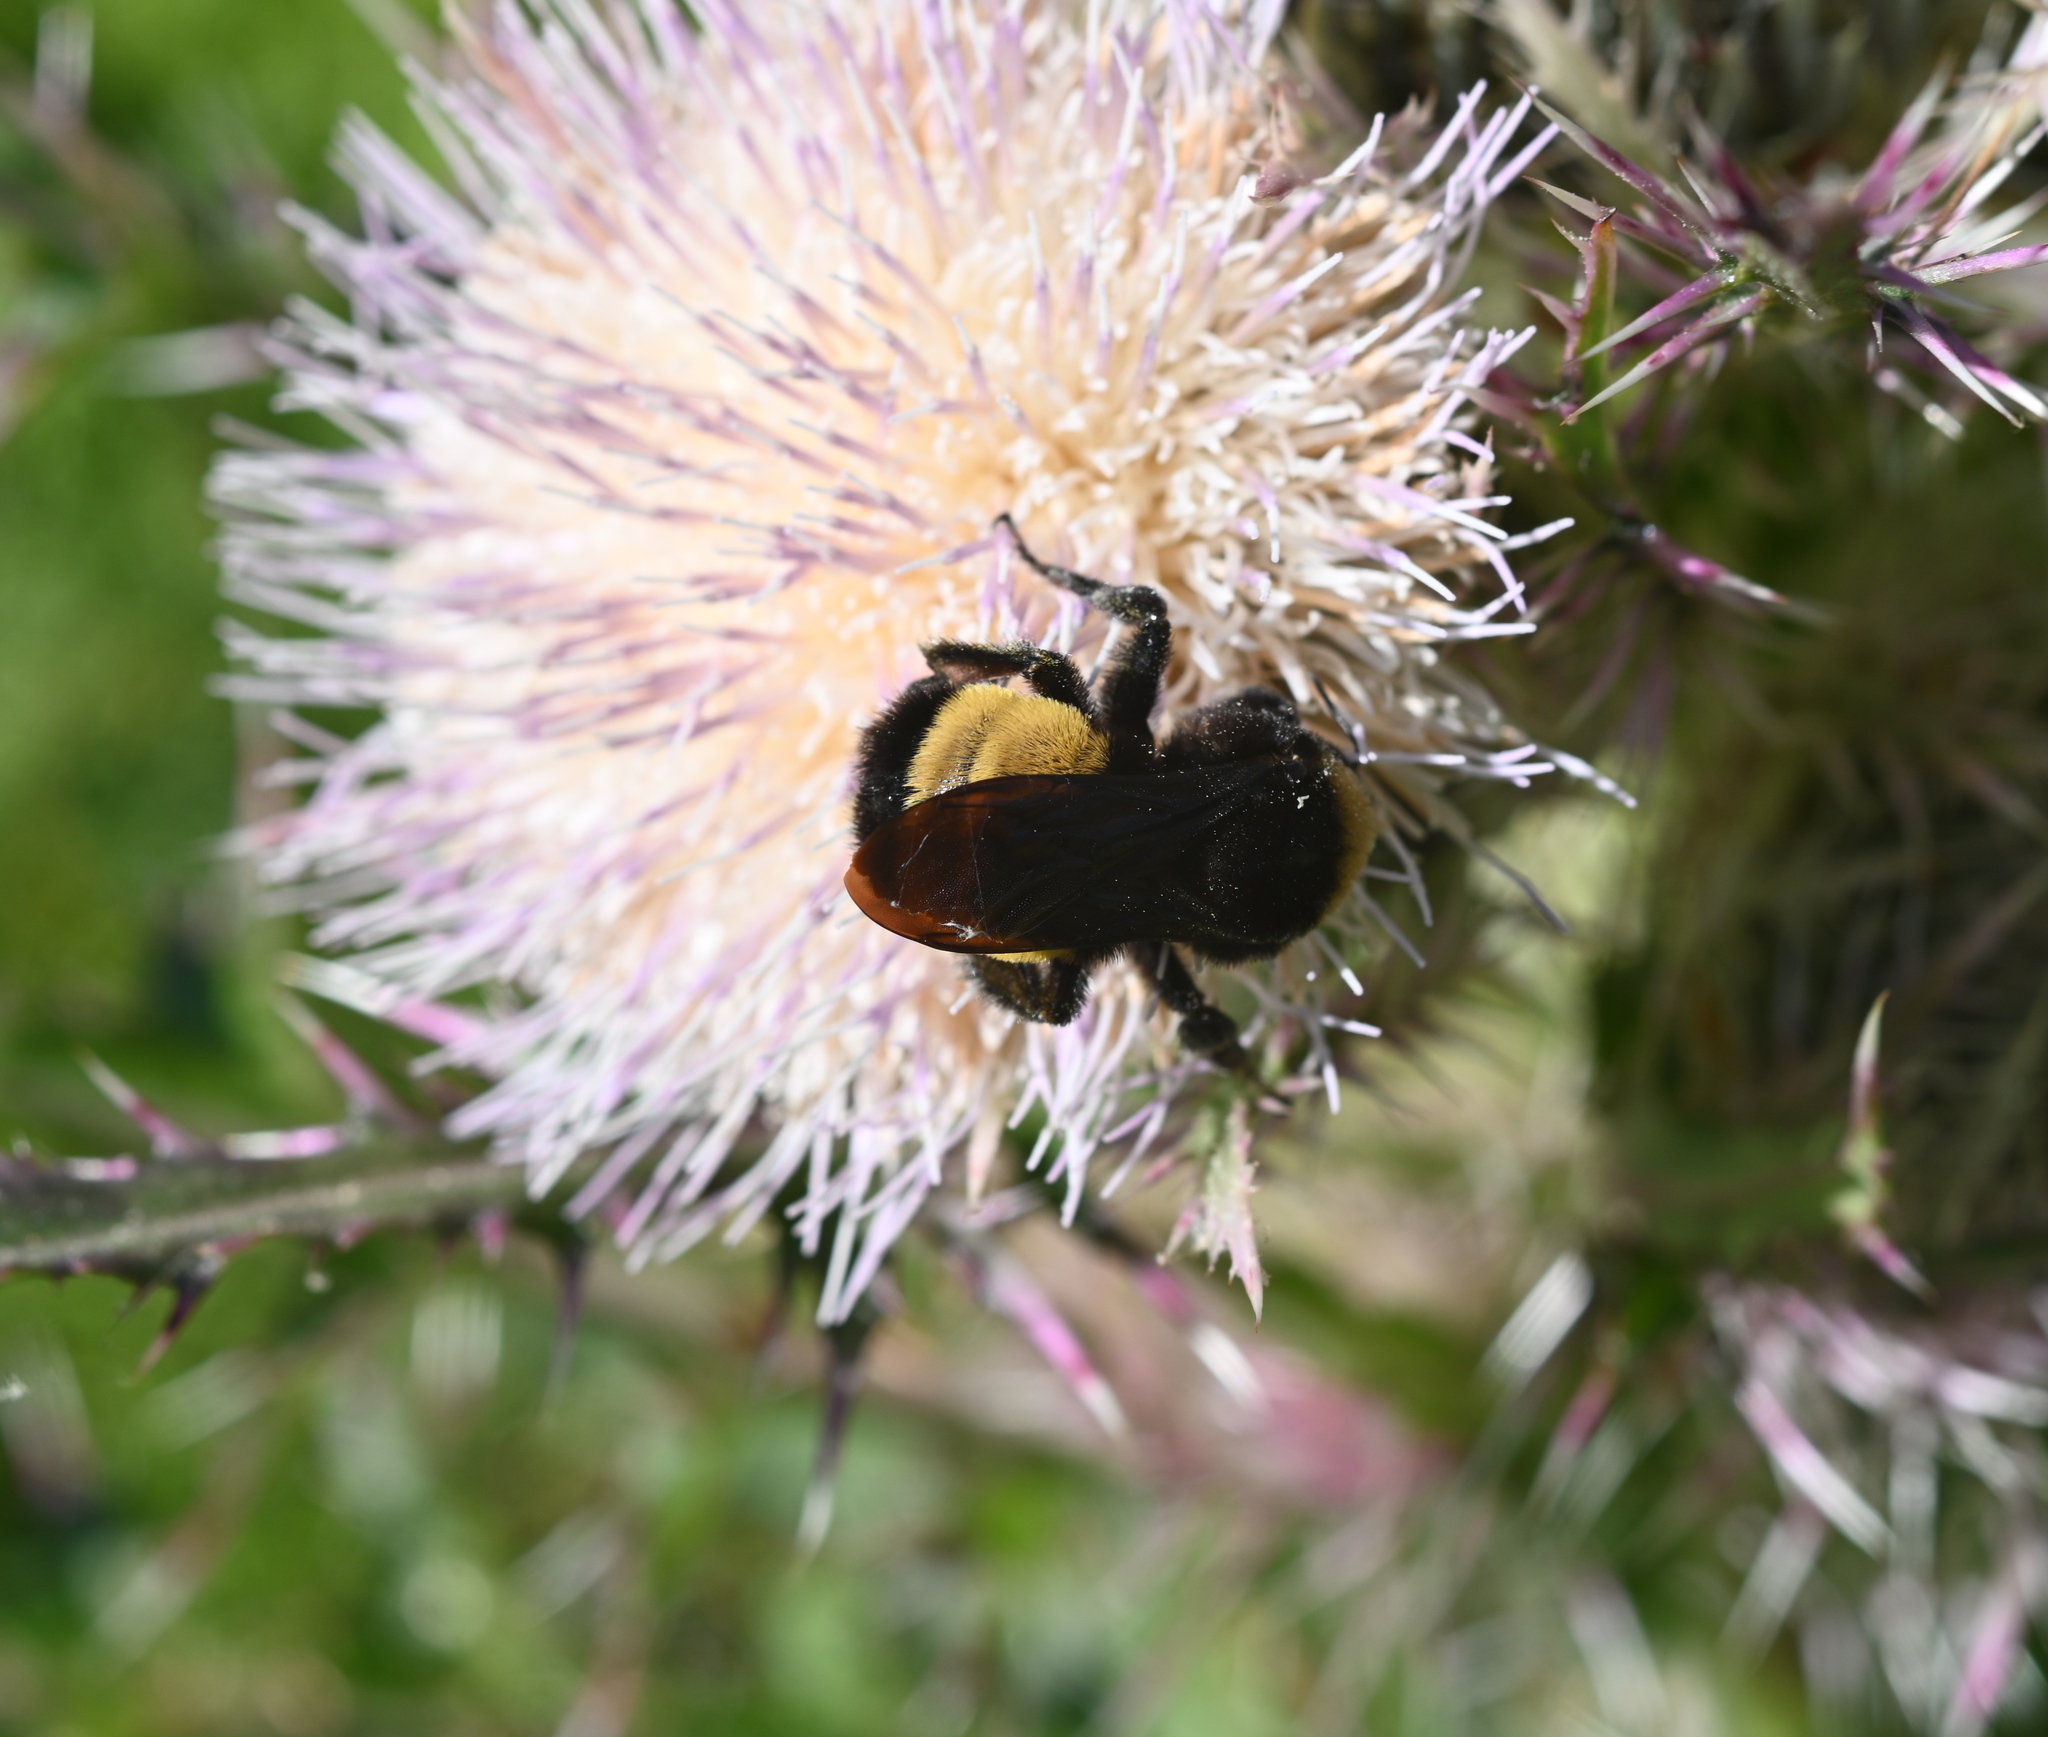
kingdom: Animalia
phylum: Arthropoda
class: Insecta
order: Hymenoptera
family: Apidae
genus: Bombus
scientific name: Bombus pensylvanicus
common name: Bumble bee
